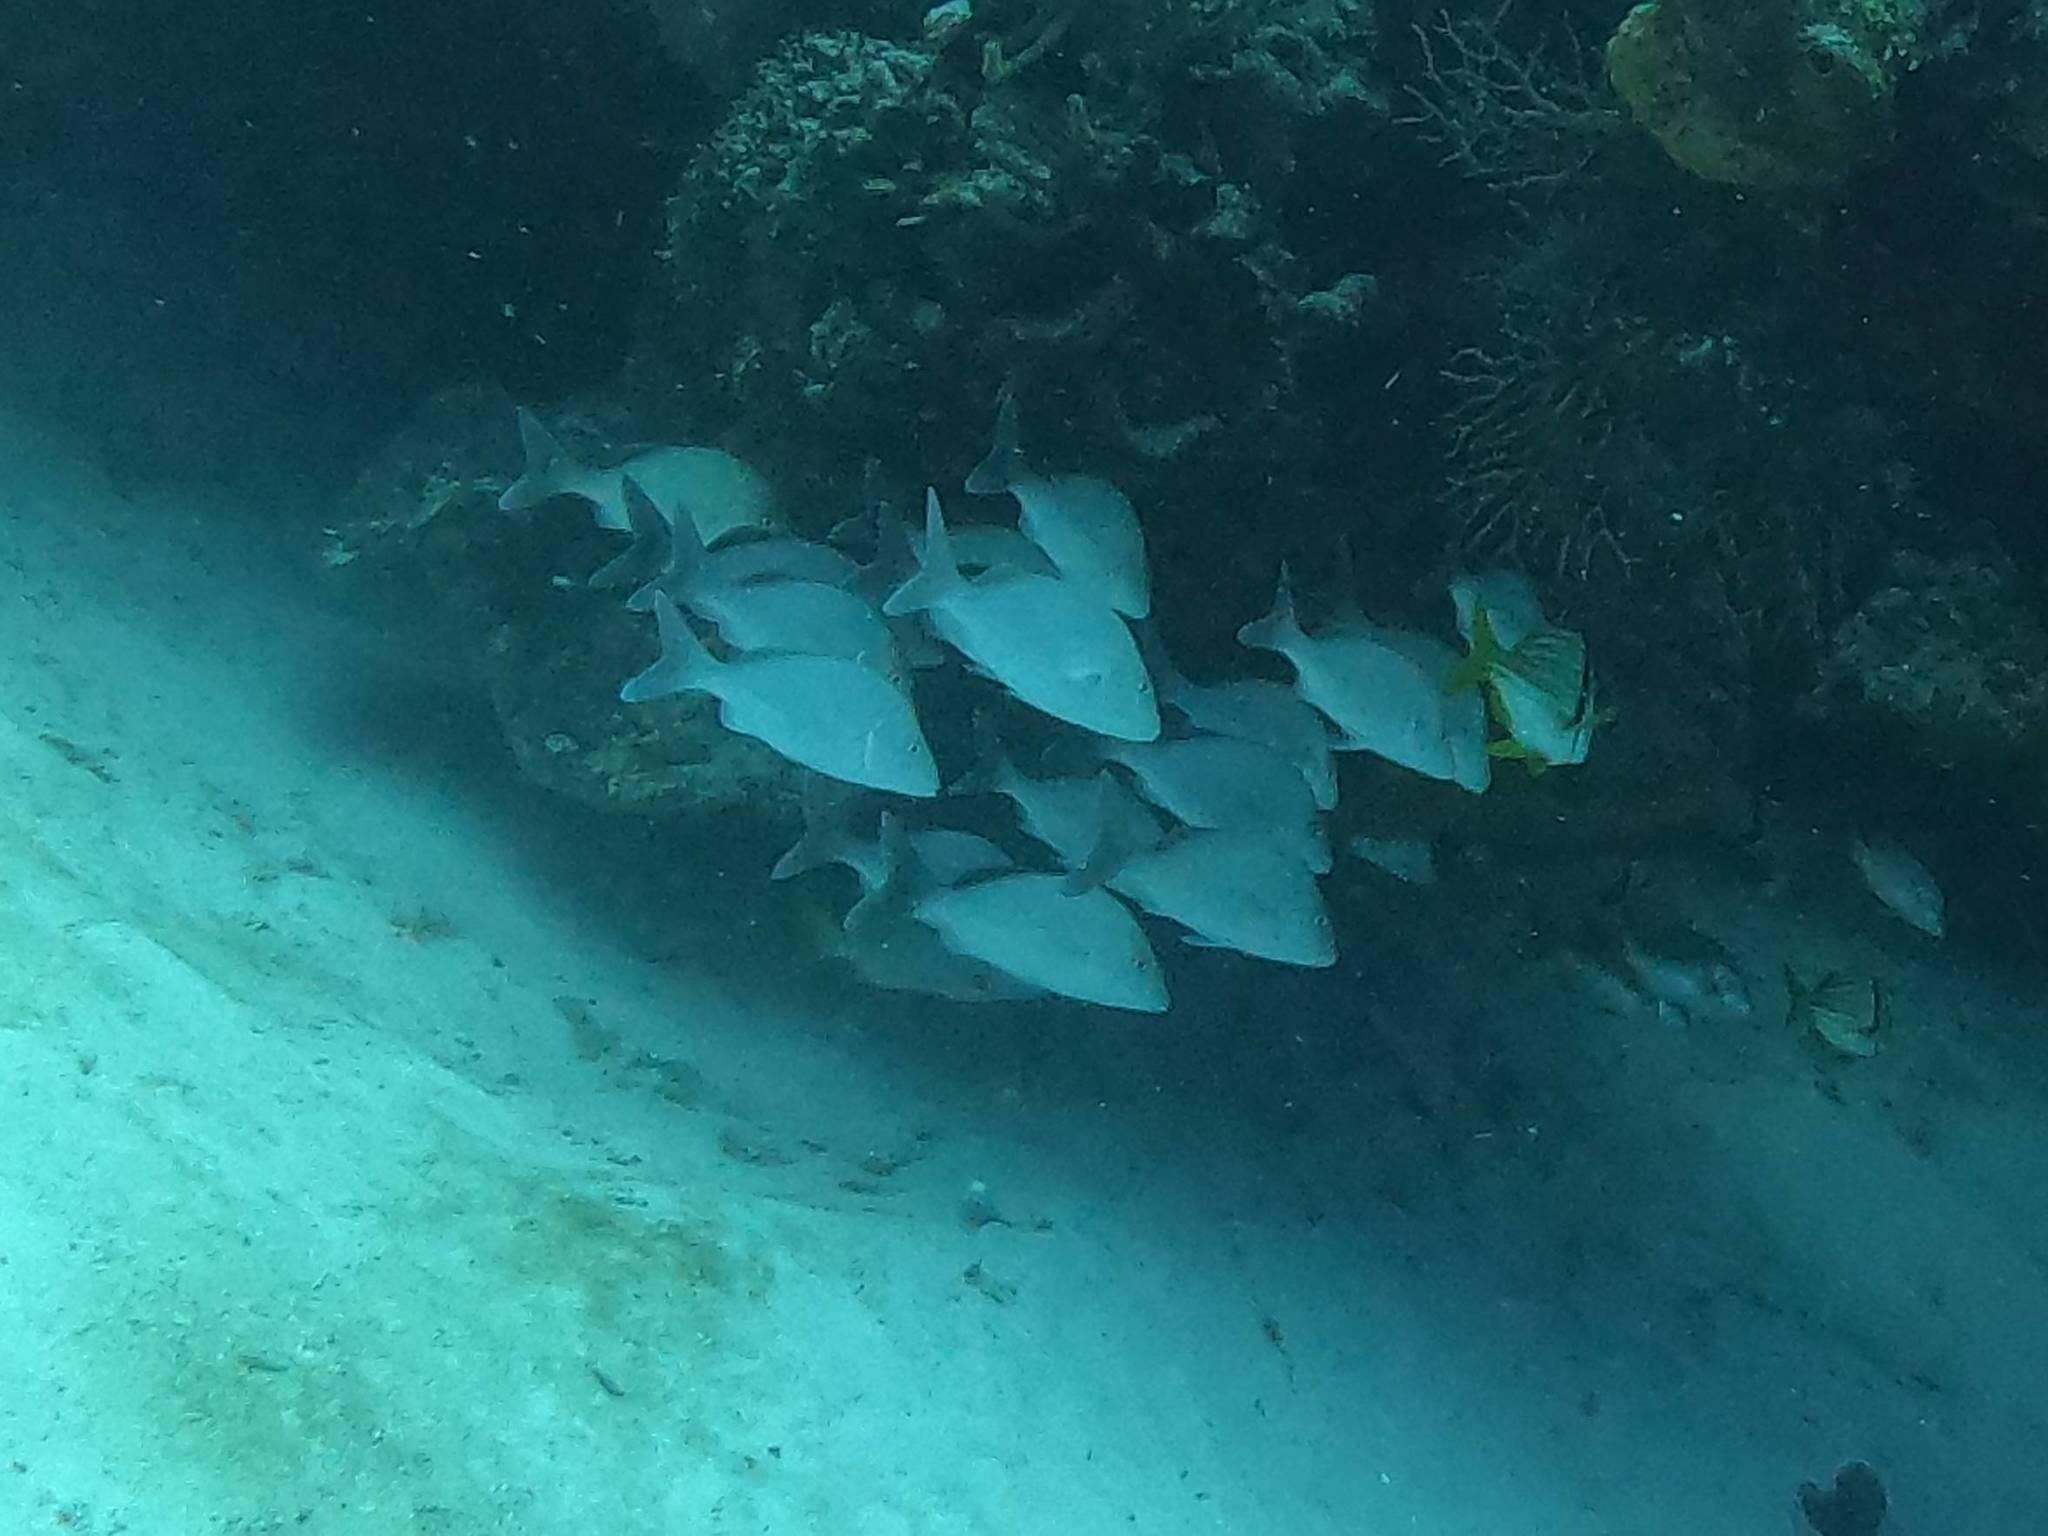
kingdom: Animalia
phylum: Chordata
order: Perciformes
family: Haemulidae
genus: Haemulon
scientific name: Haemulon album
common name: Margate
